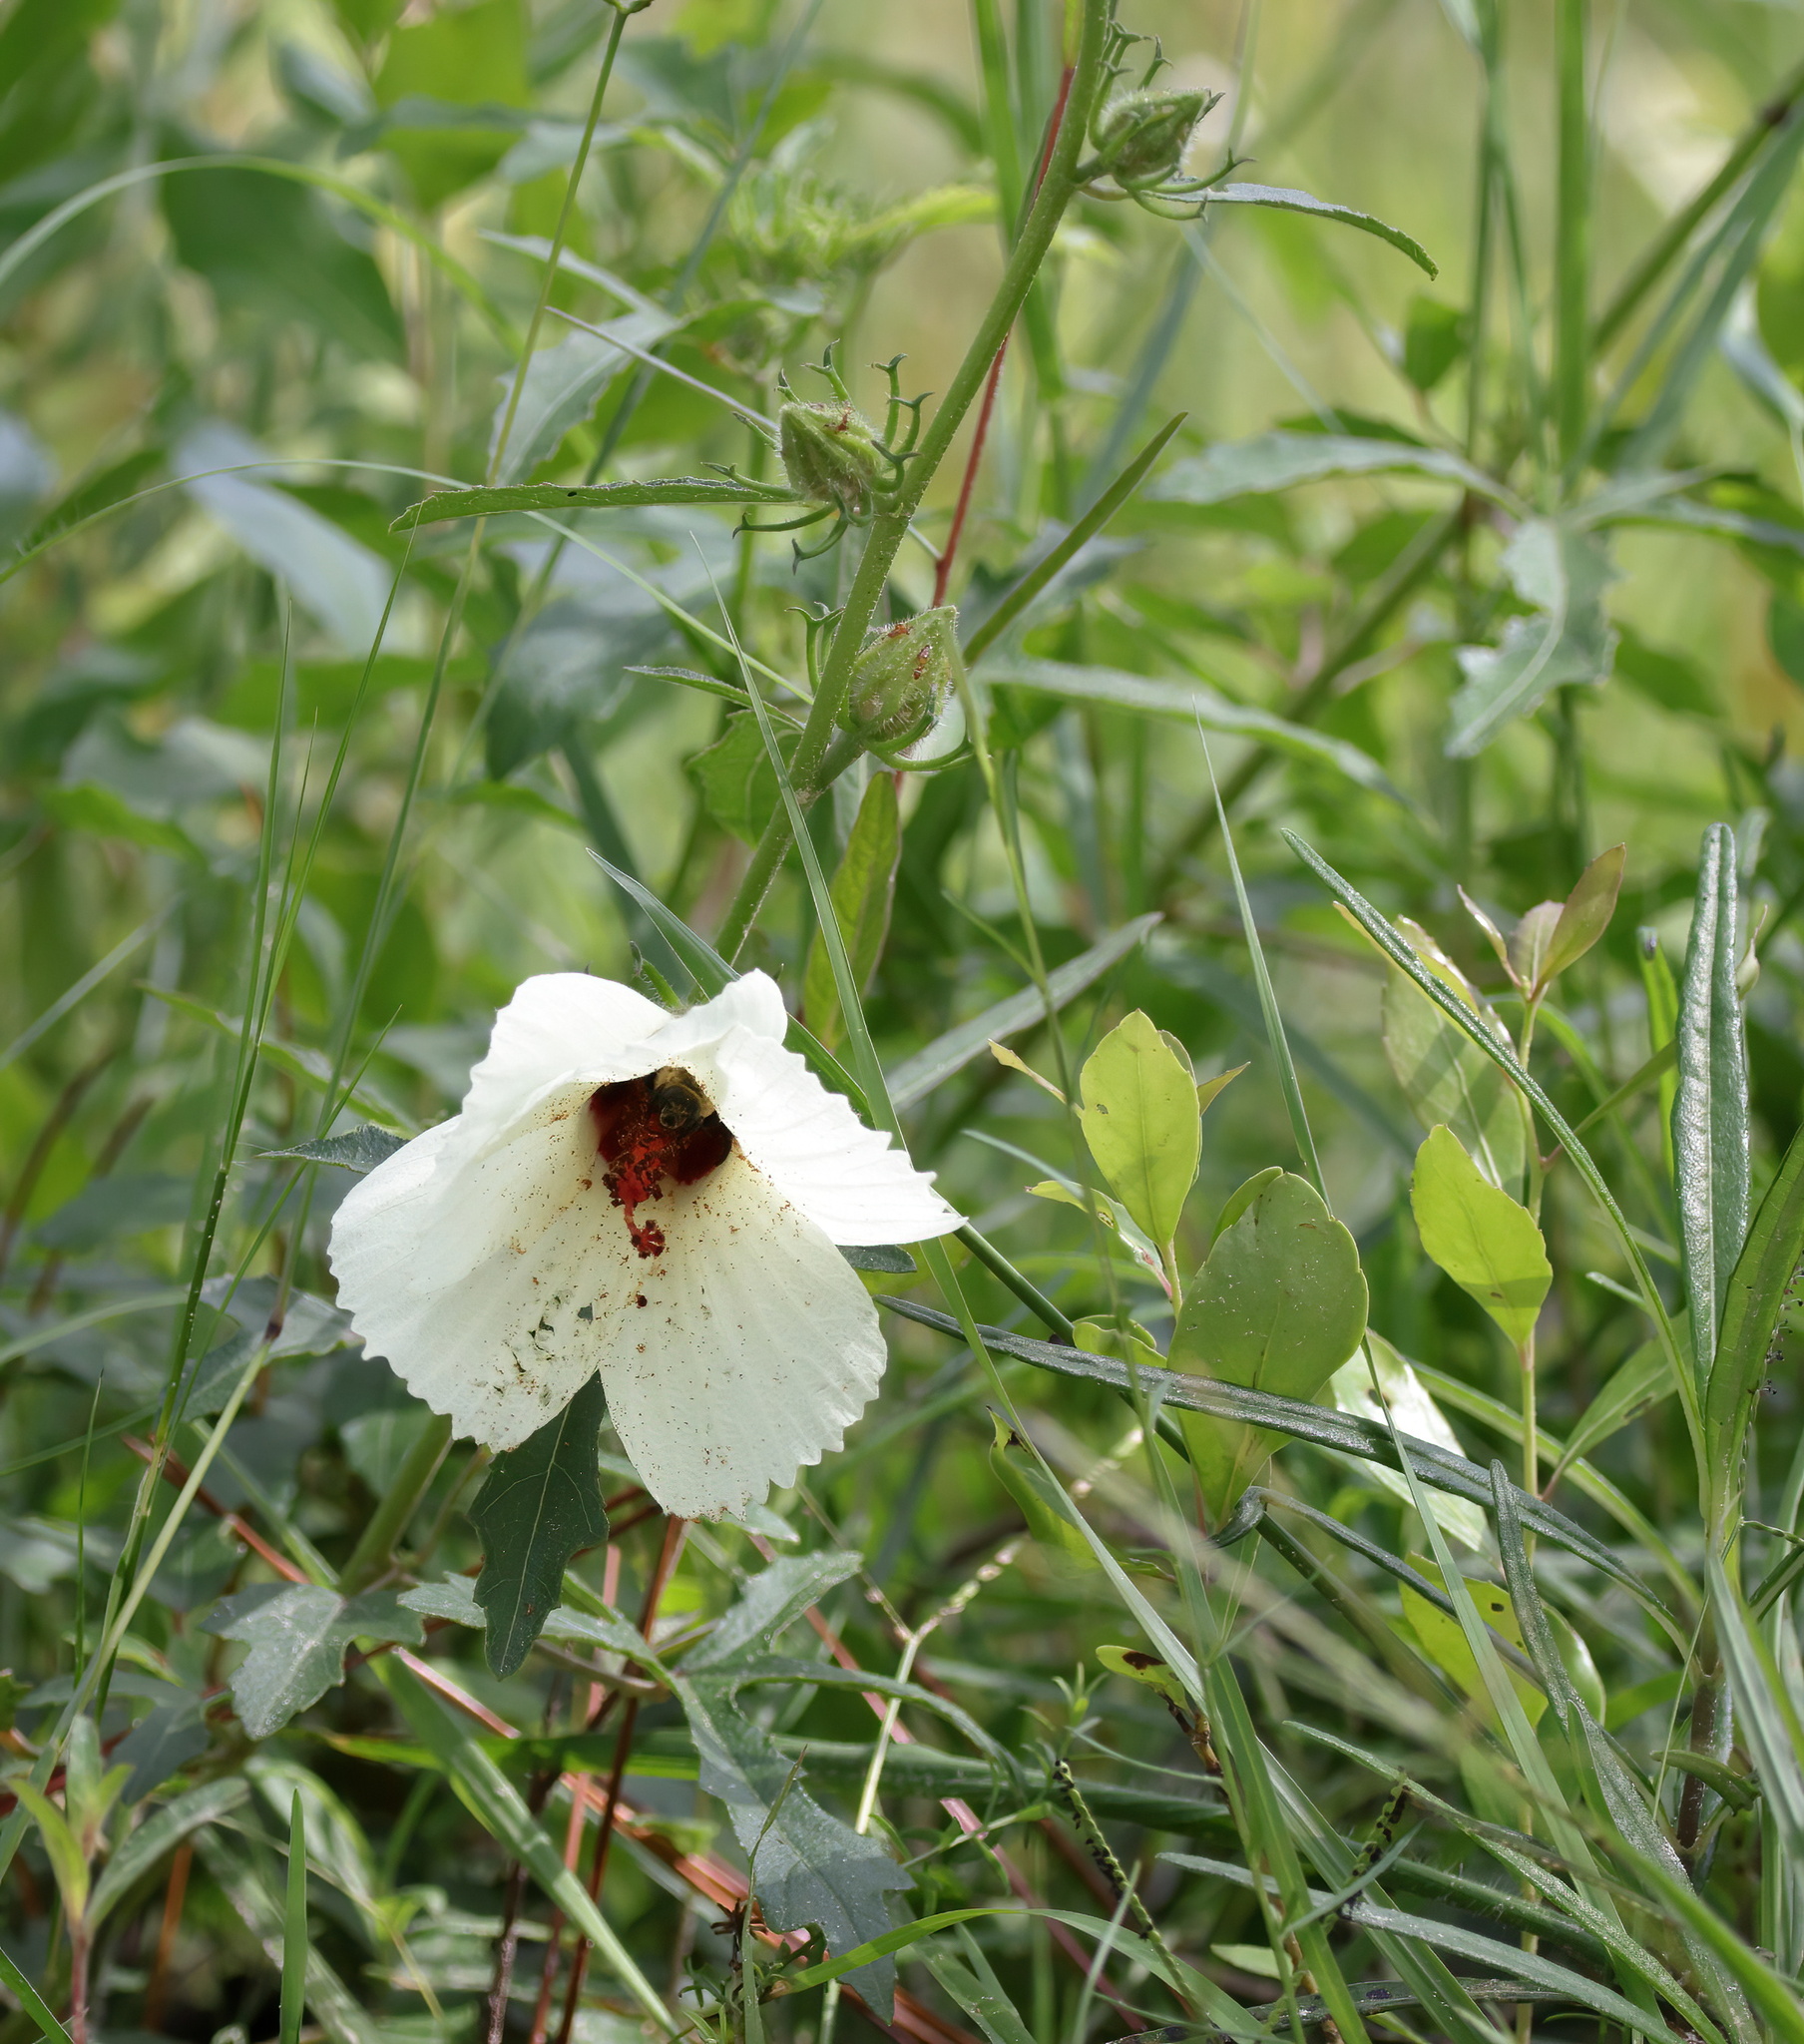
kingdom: Plantae
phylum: Tracheophyta
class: Magnoliopsida
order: Malvales
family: Malvaceae
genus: Hibiscus
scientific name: Hibiscus aculeatus
